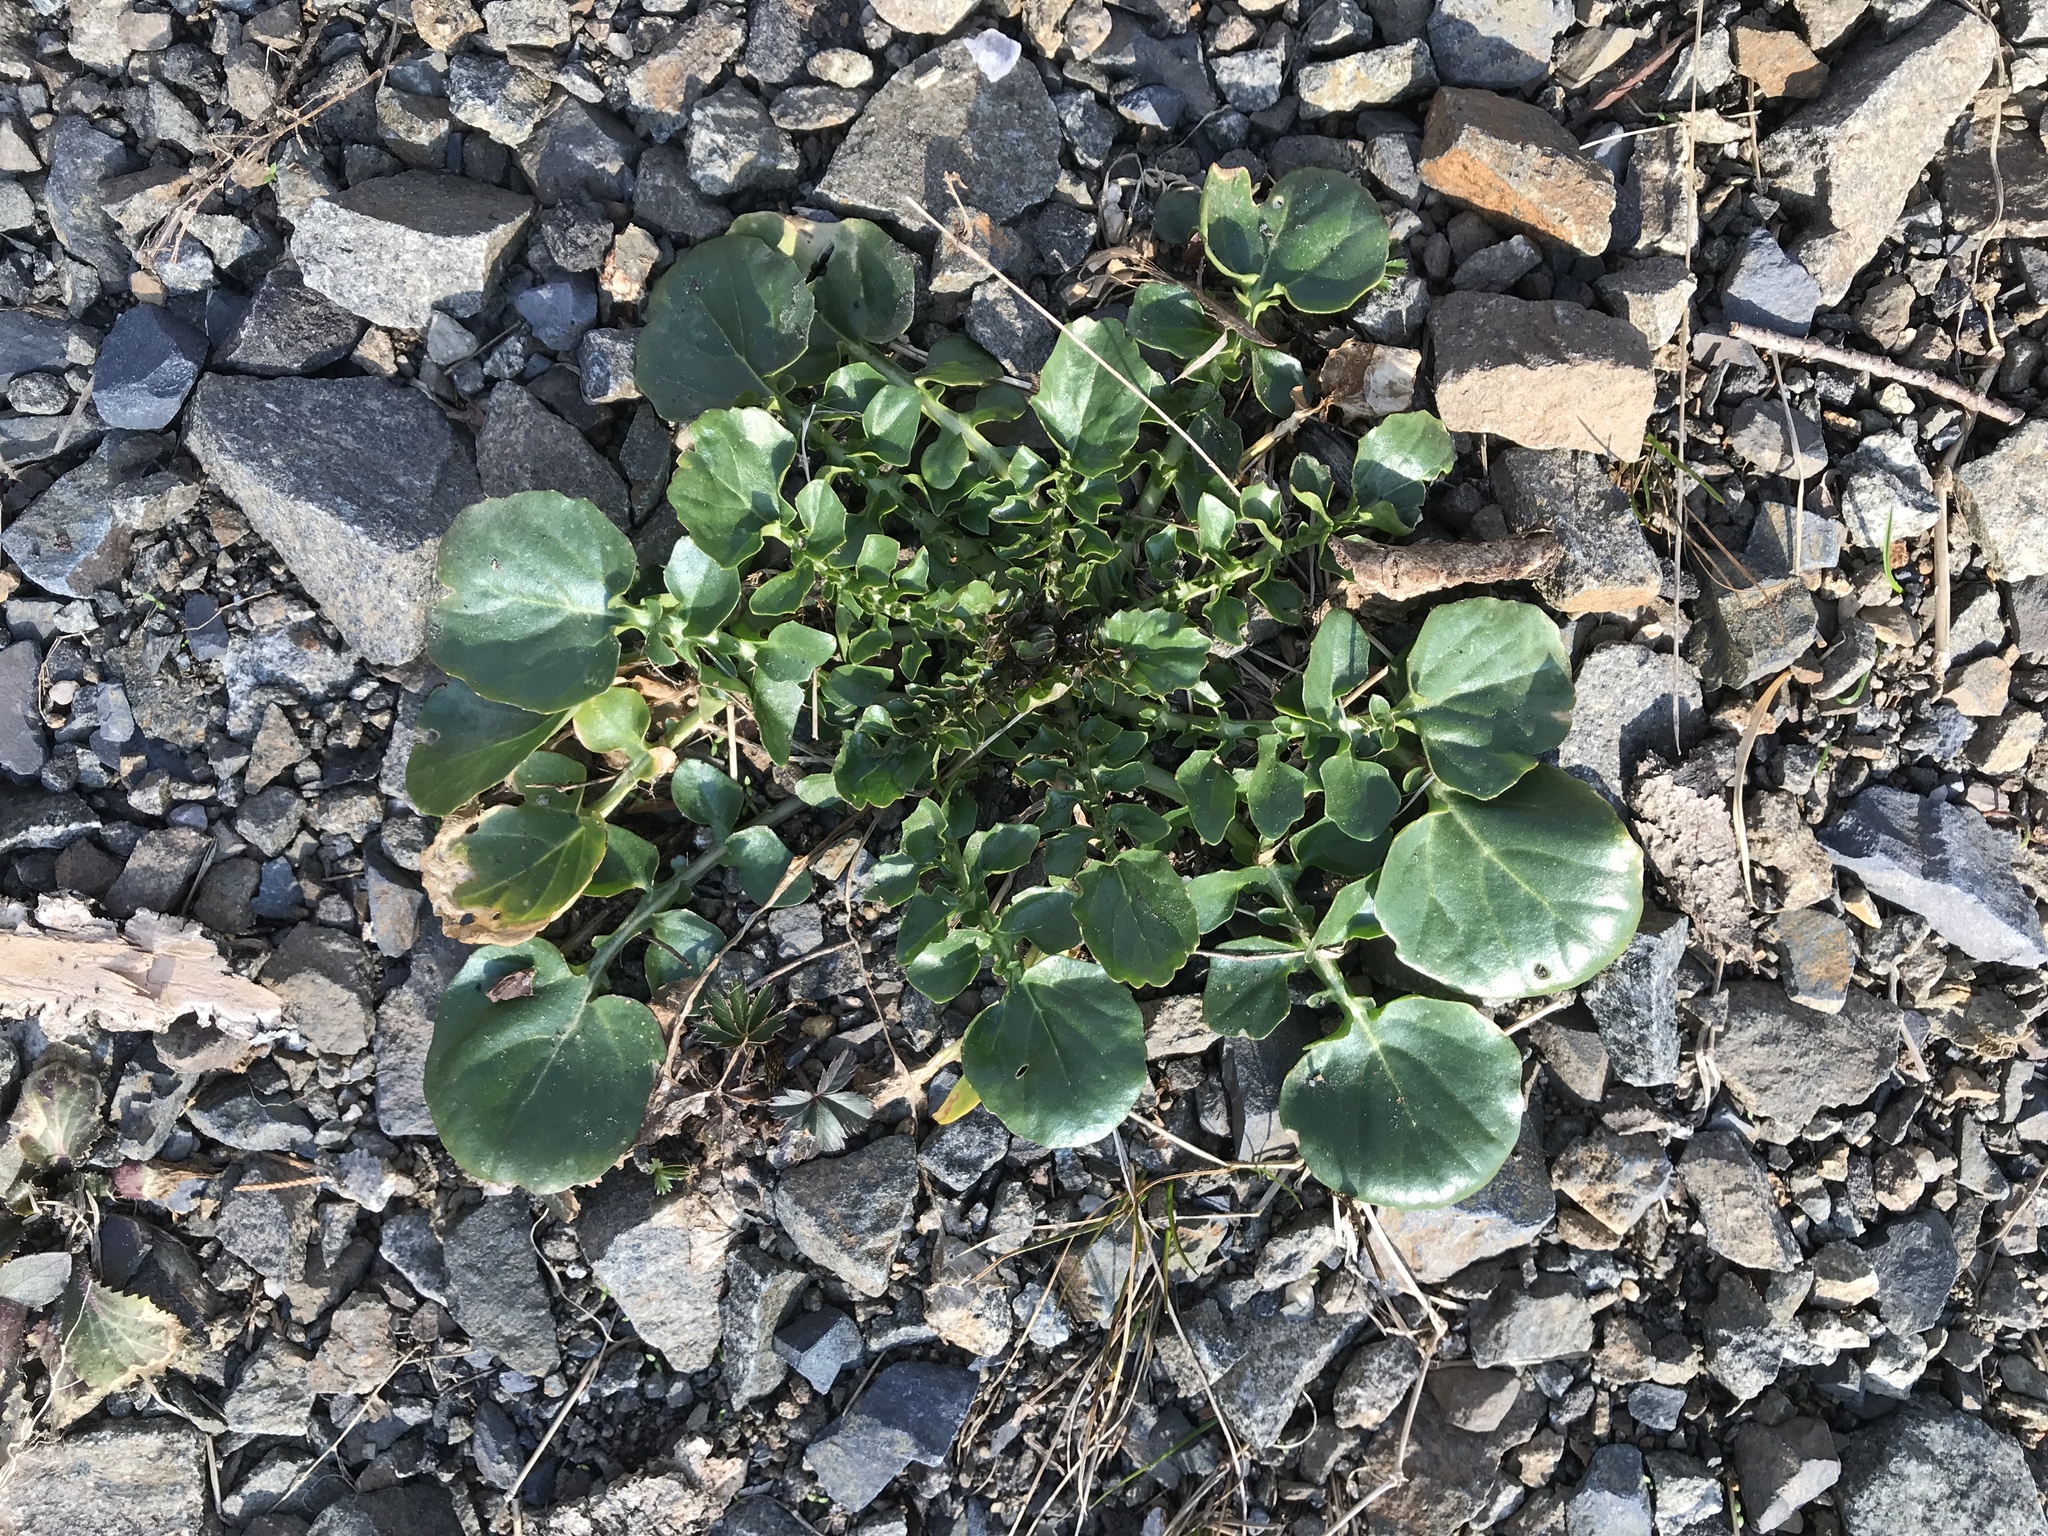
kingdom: Plantae
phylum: Tracheophyta
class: Magnoliopsida
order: Brassicales
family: Brassicaceae
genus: Barbarea
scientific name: Barbarea vulgaris
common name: Cressy-greens
